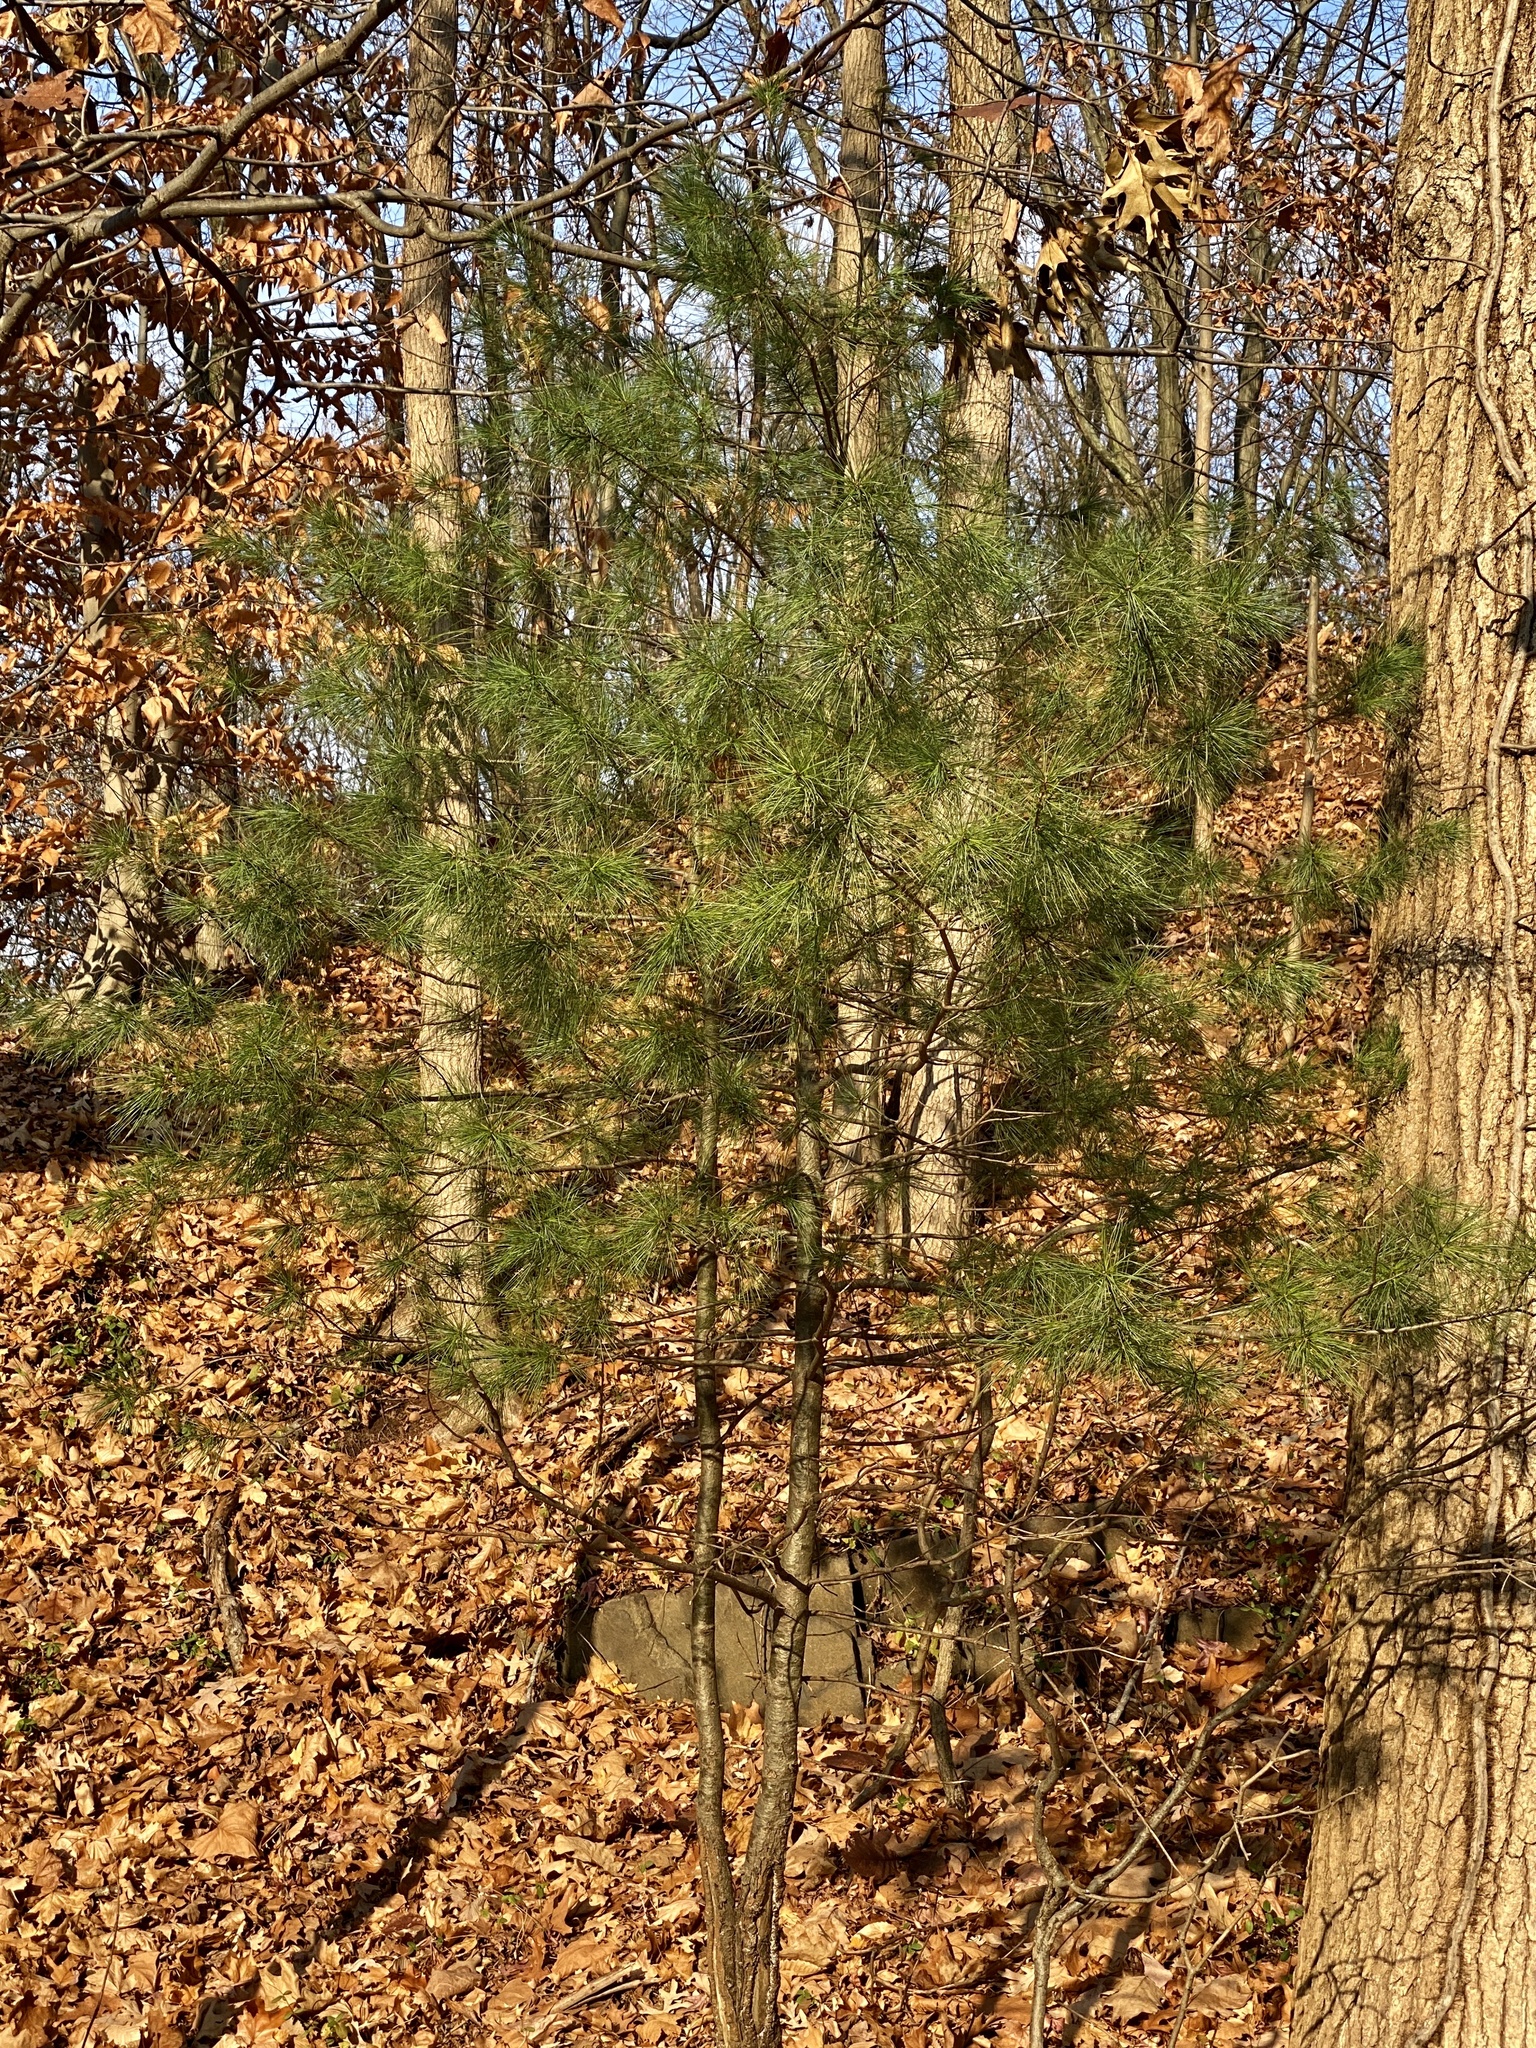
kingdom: Plantae
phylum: Tracheophyta
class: Pinopsida
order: Pinales
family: Pinaceae
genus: Pinus
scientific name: Pinus strobus
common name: Weymouth pine
